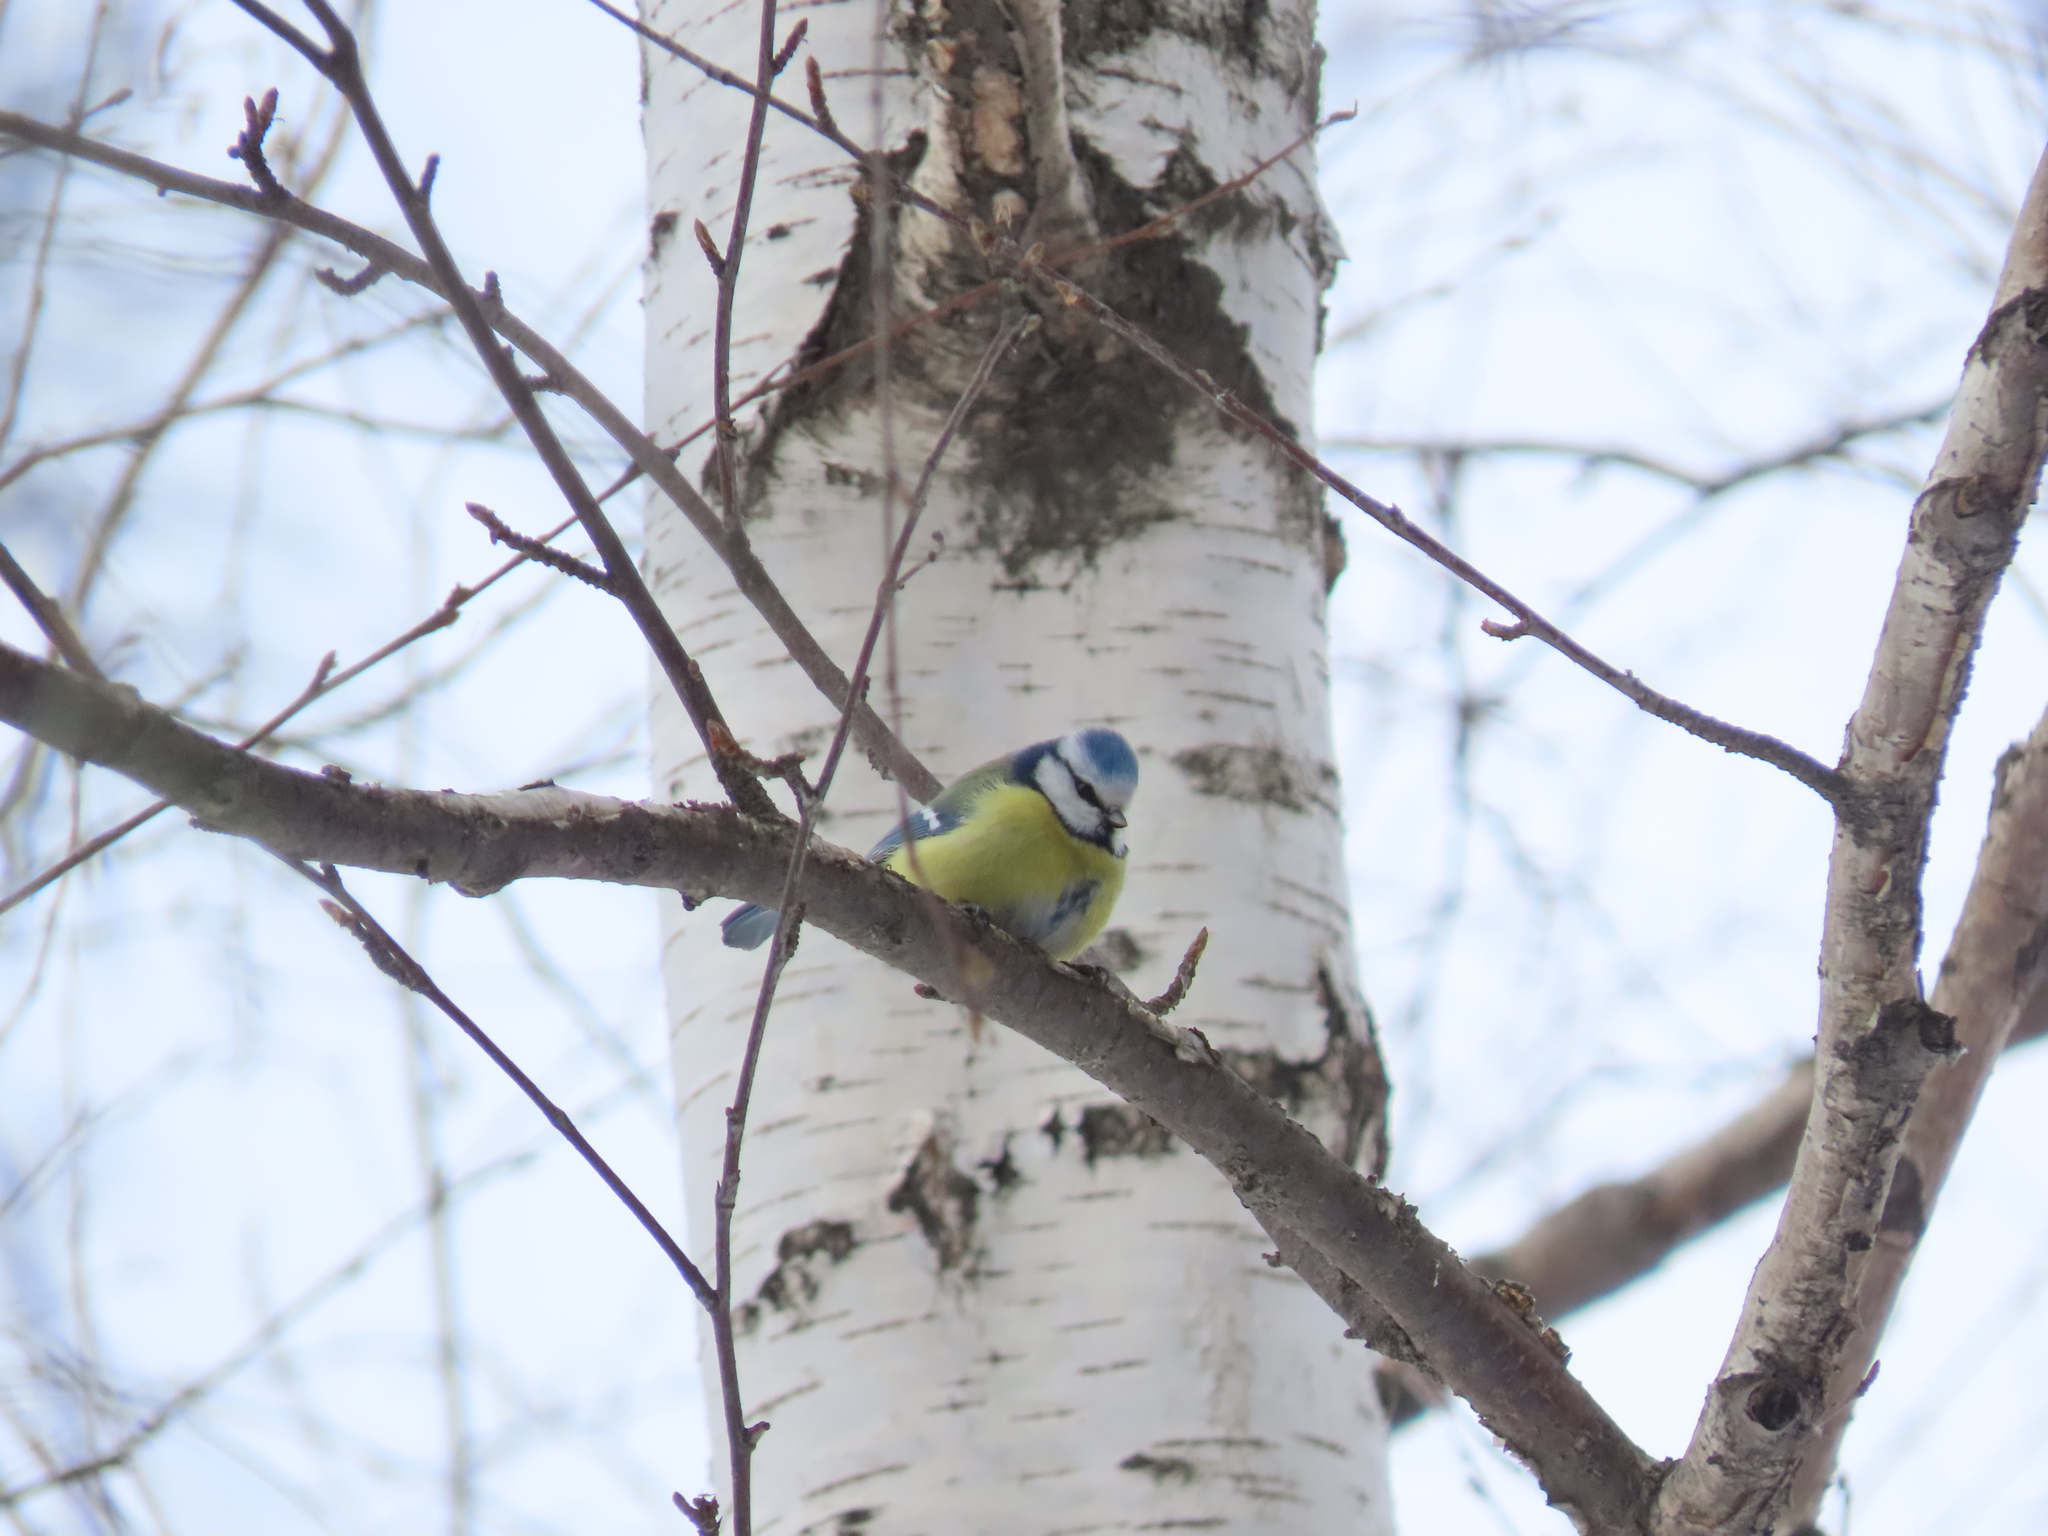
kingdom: Animalia
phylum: Chordata
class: Aves
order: Passeriformes
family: Paridae
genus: Cyanistes
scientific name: Cyanistes caeruleus
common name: Eurasian blue tit
